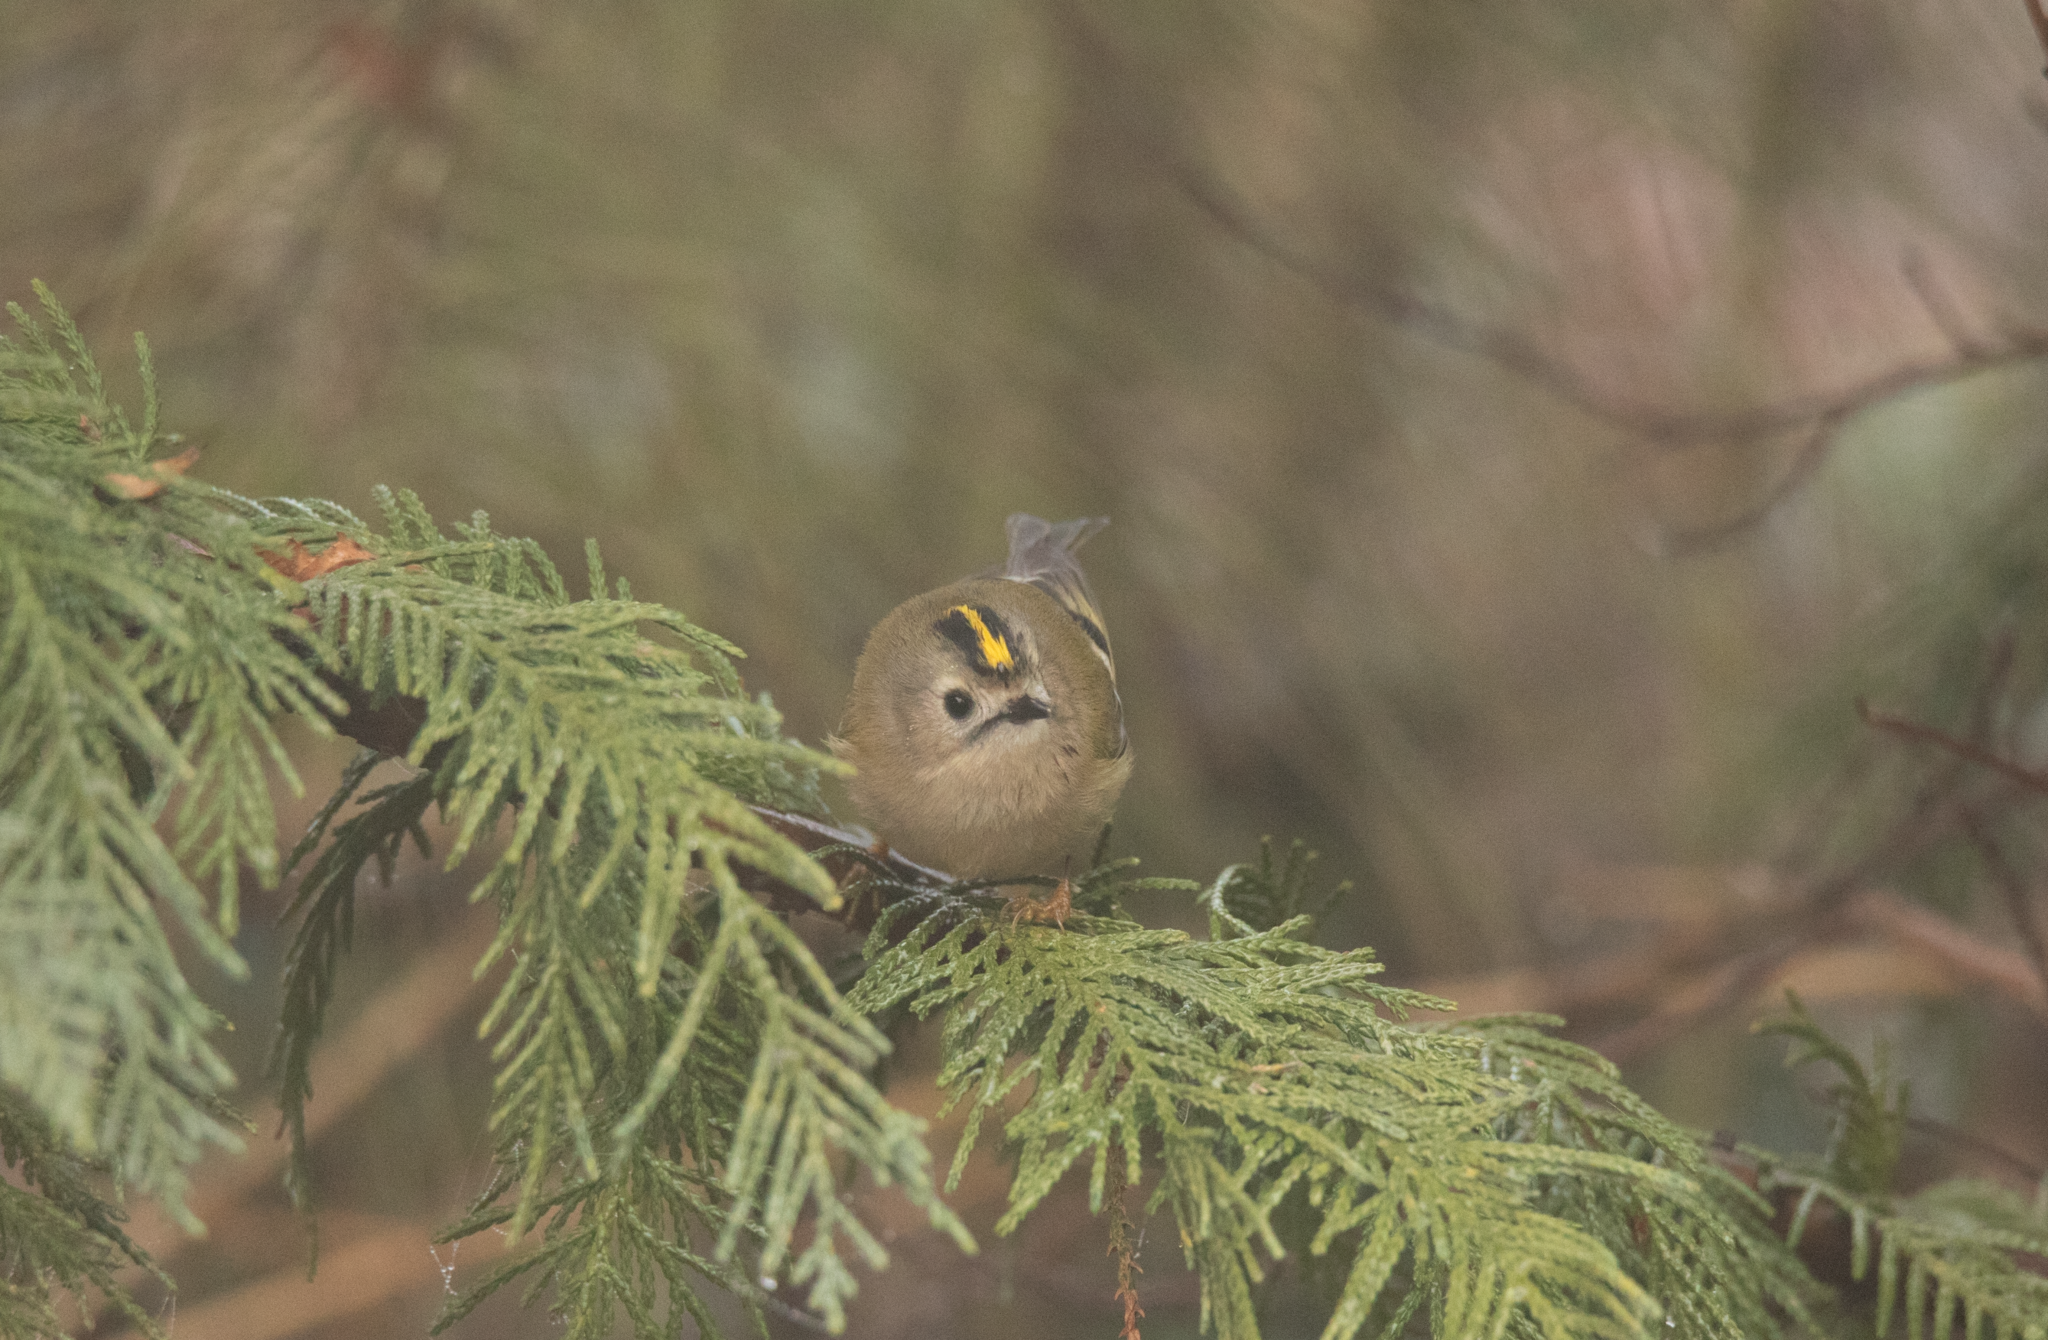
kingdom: Animalia
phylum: Chordata
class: Aves
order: Passeriformes
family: Regulidae
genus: Regulus
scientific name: Regulus regulus
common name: Goldcrest
